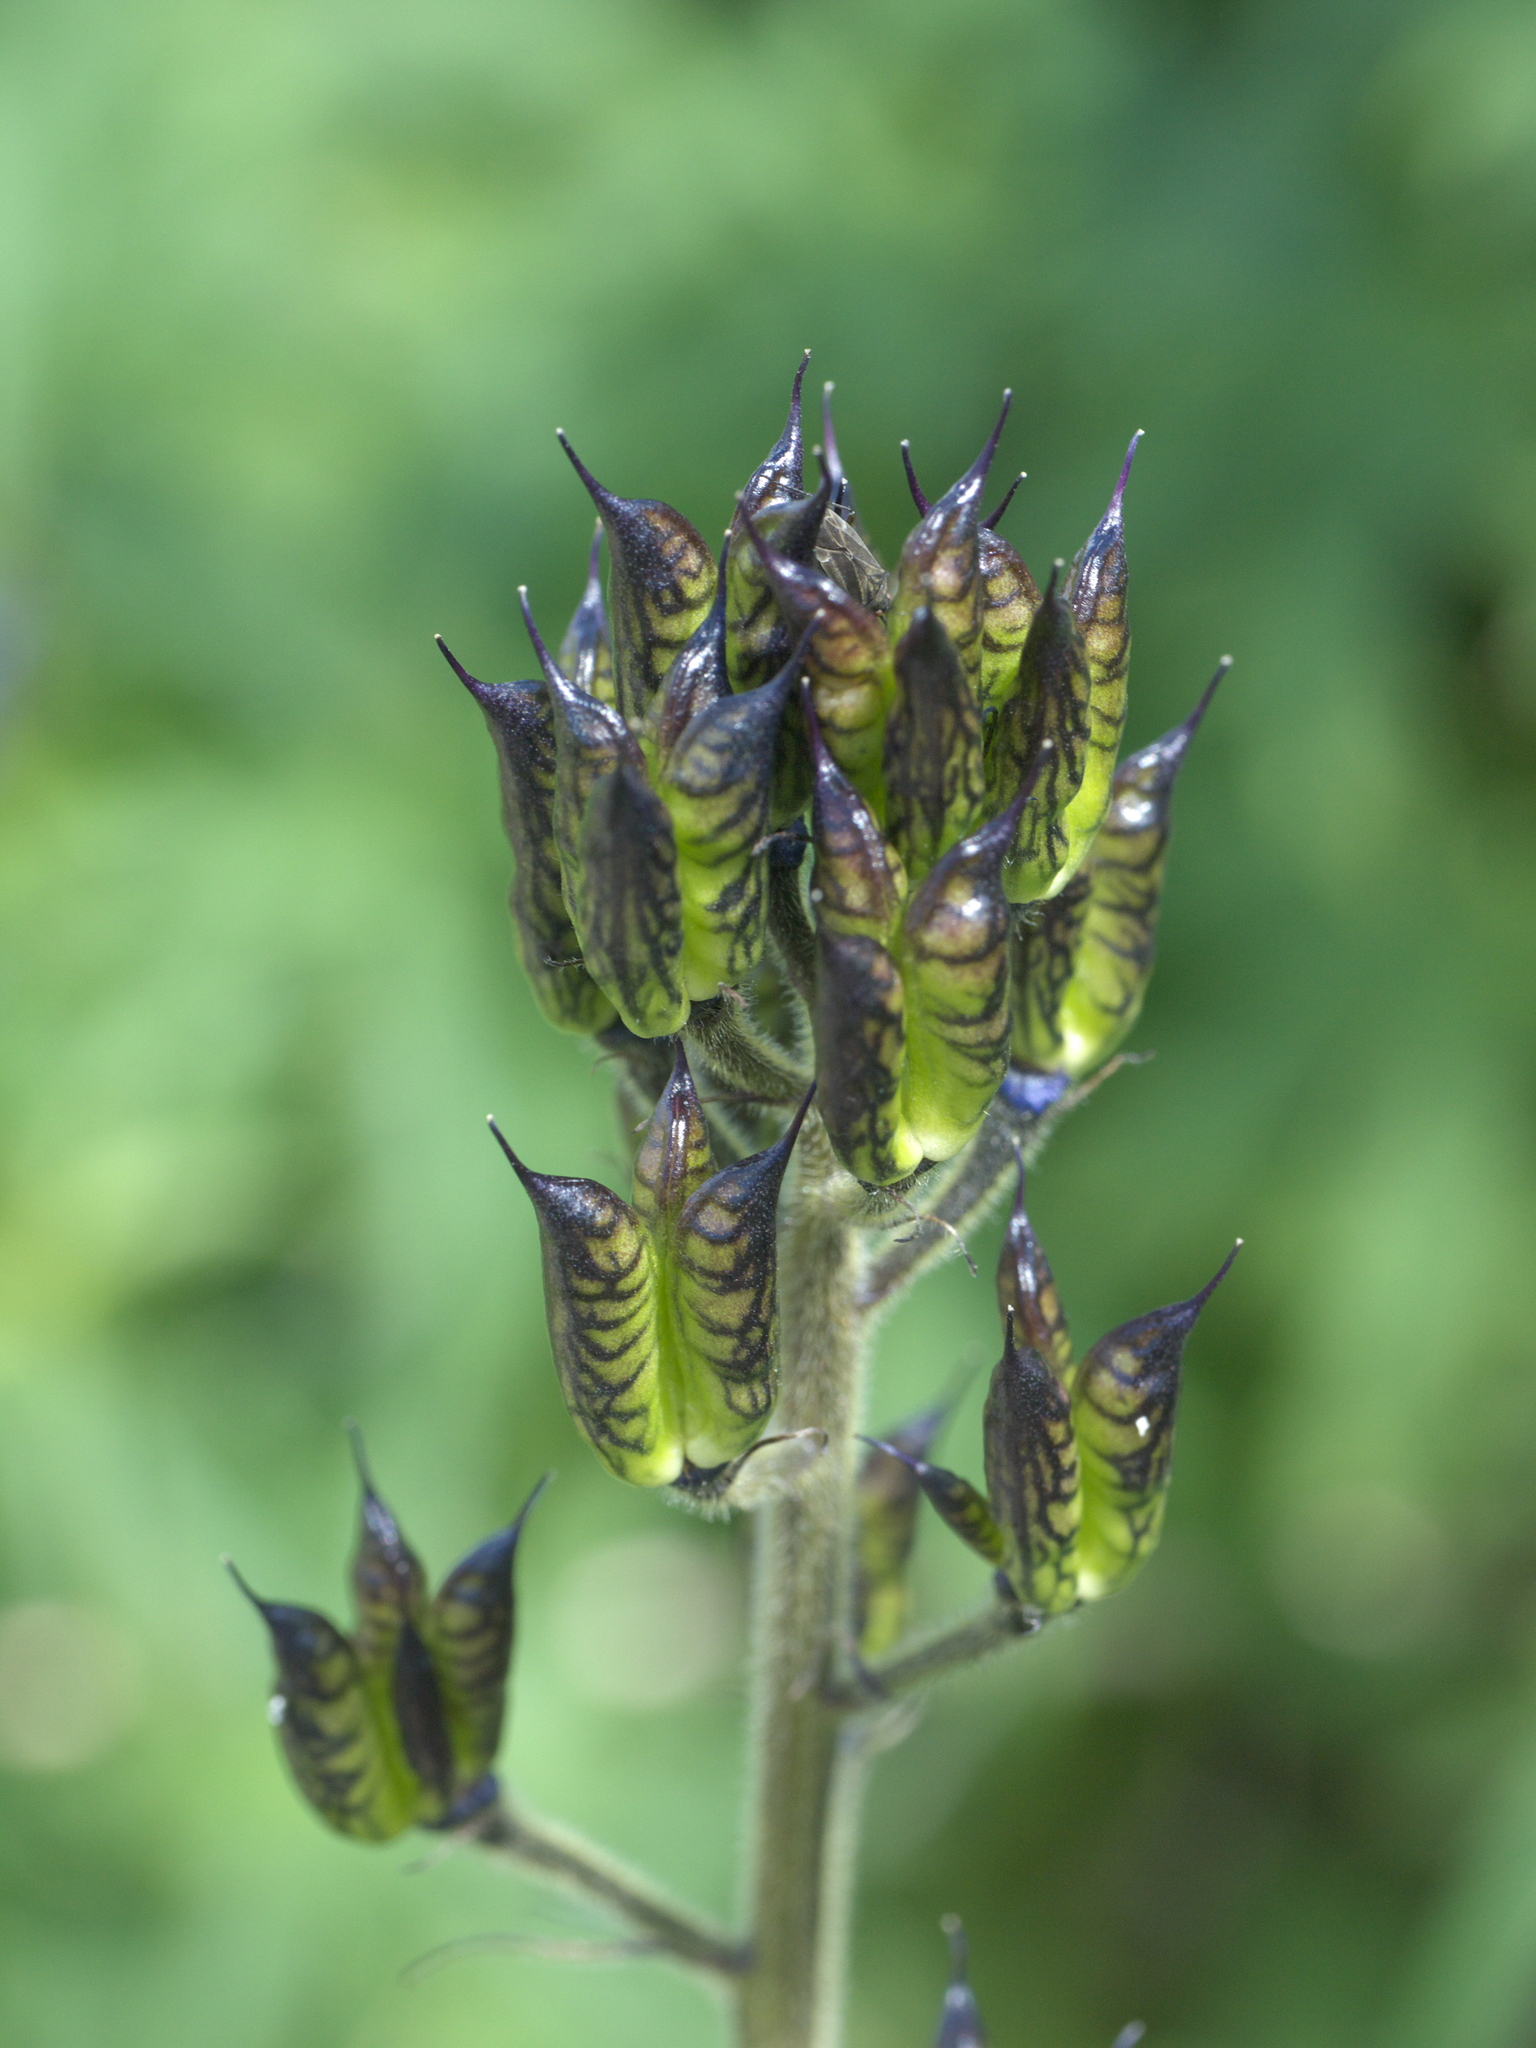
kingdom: Plantae
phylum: Tracheophyta
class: Magnoliopsida
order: Ranunculales
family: Ranunculaceae
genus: Delphinium
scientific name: Delphinium barbeyi
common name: Subalpine larkspur
